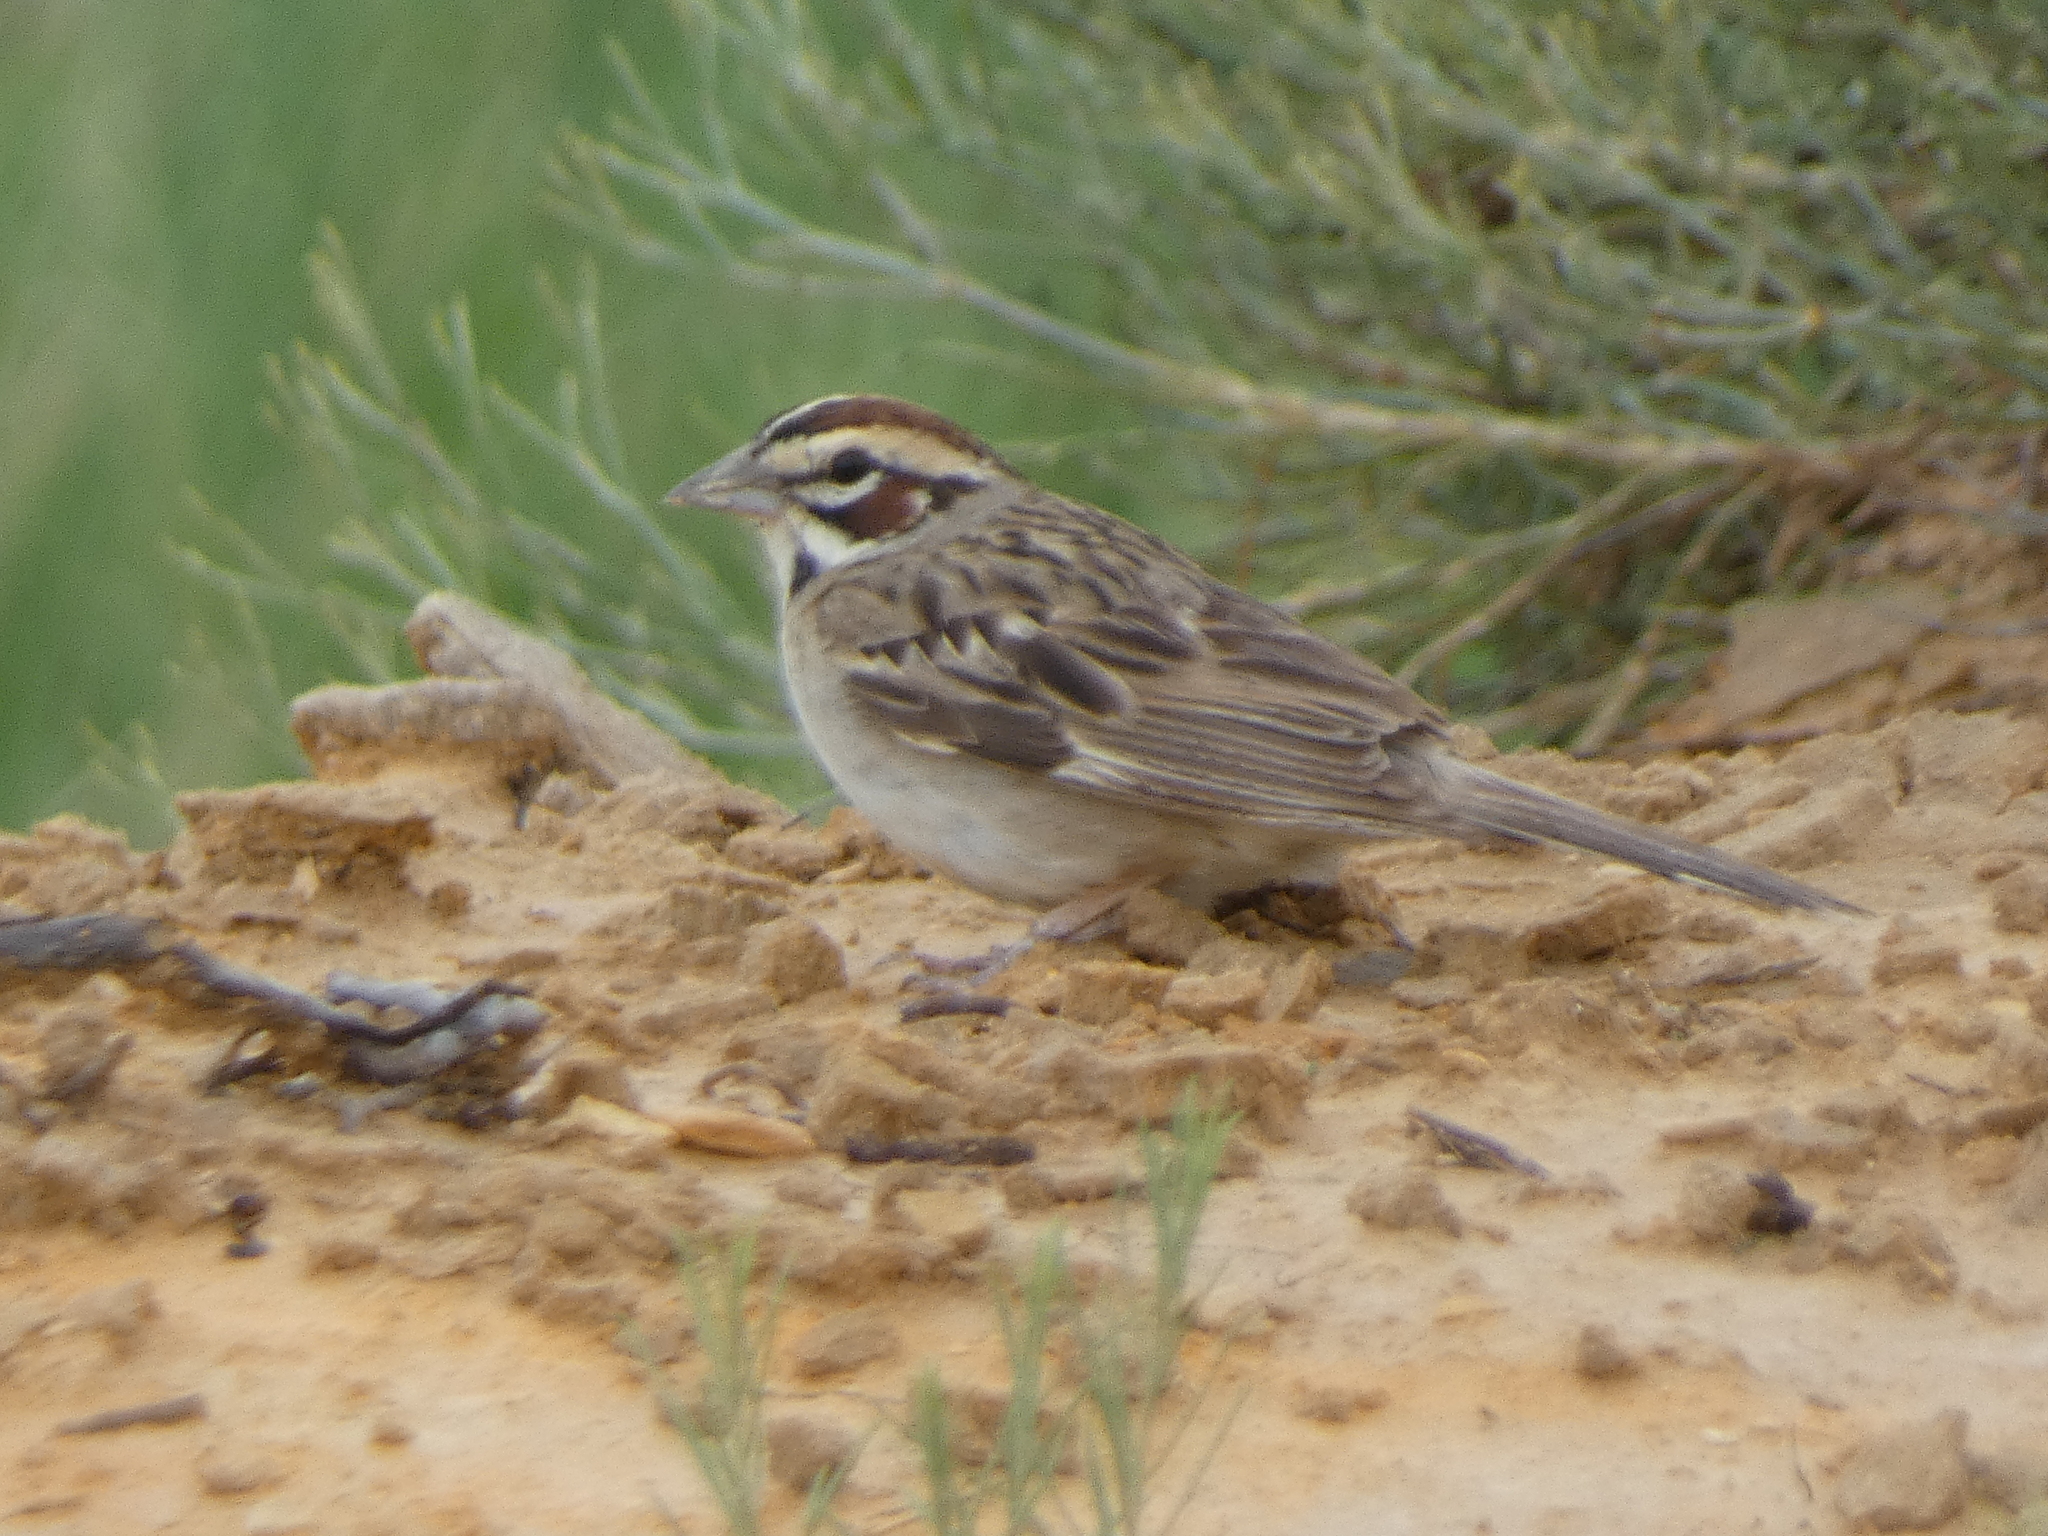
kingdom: Animalia
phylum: Chordata
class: Aves
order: Passeriformes
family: Passerellidae
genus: Chondestes
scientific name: Chondestes grammacus
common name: Lark sparrow
